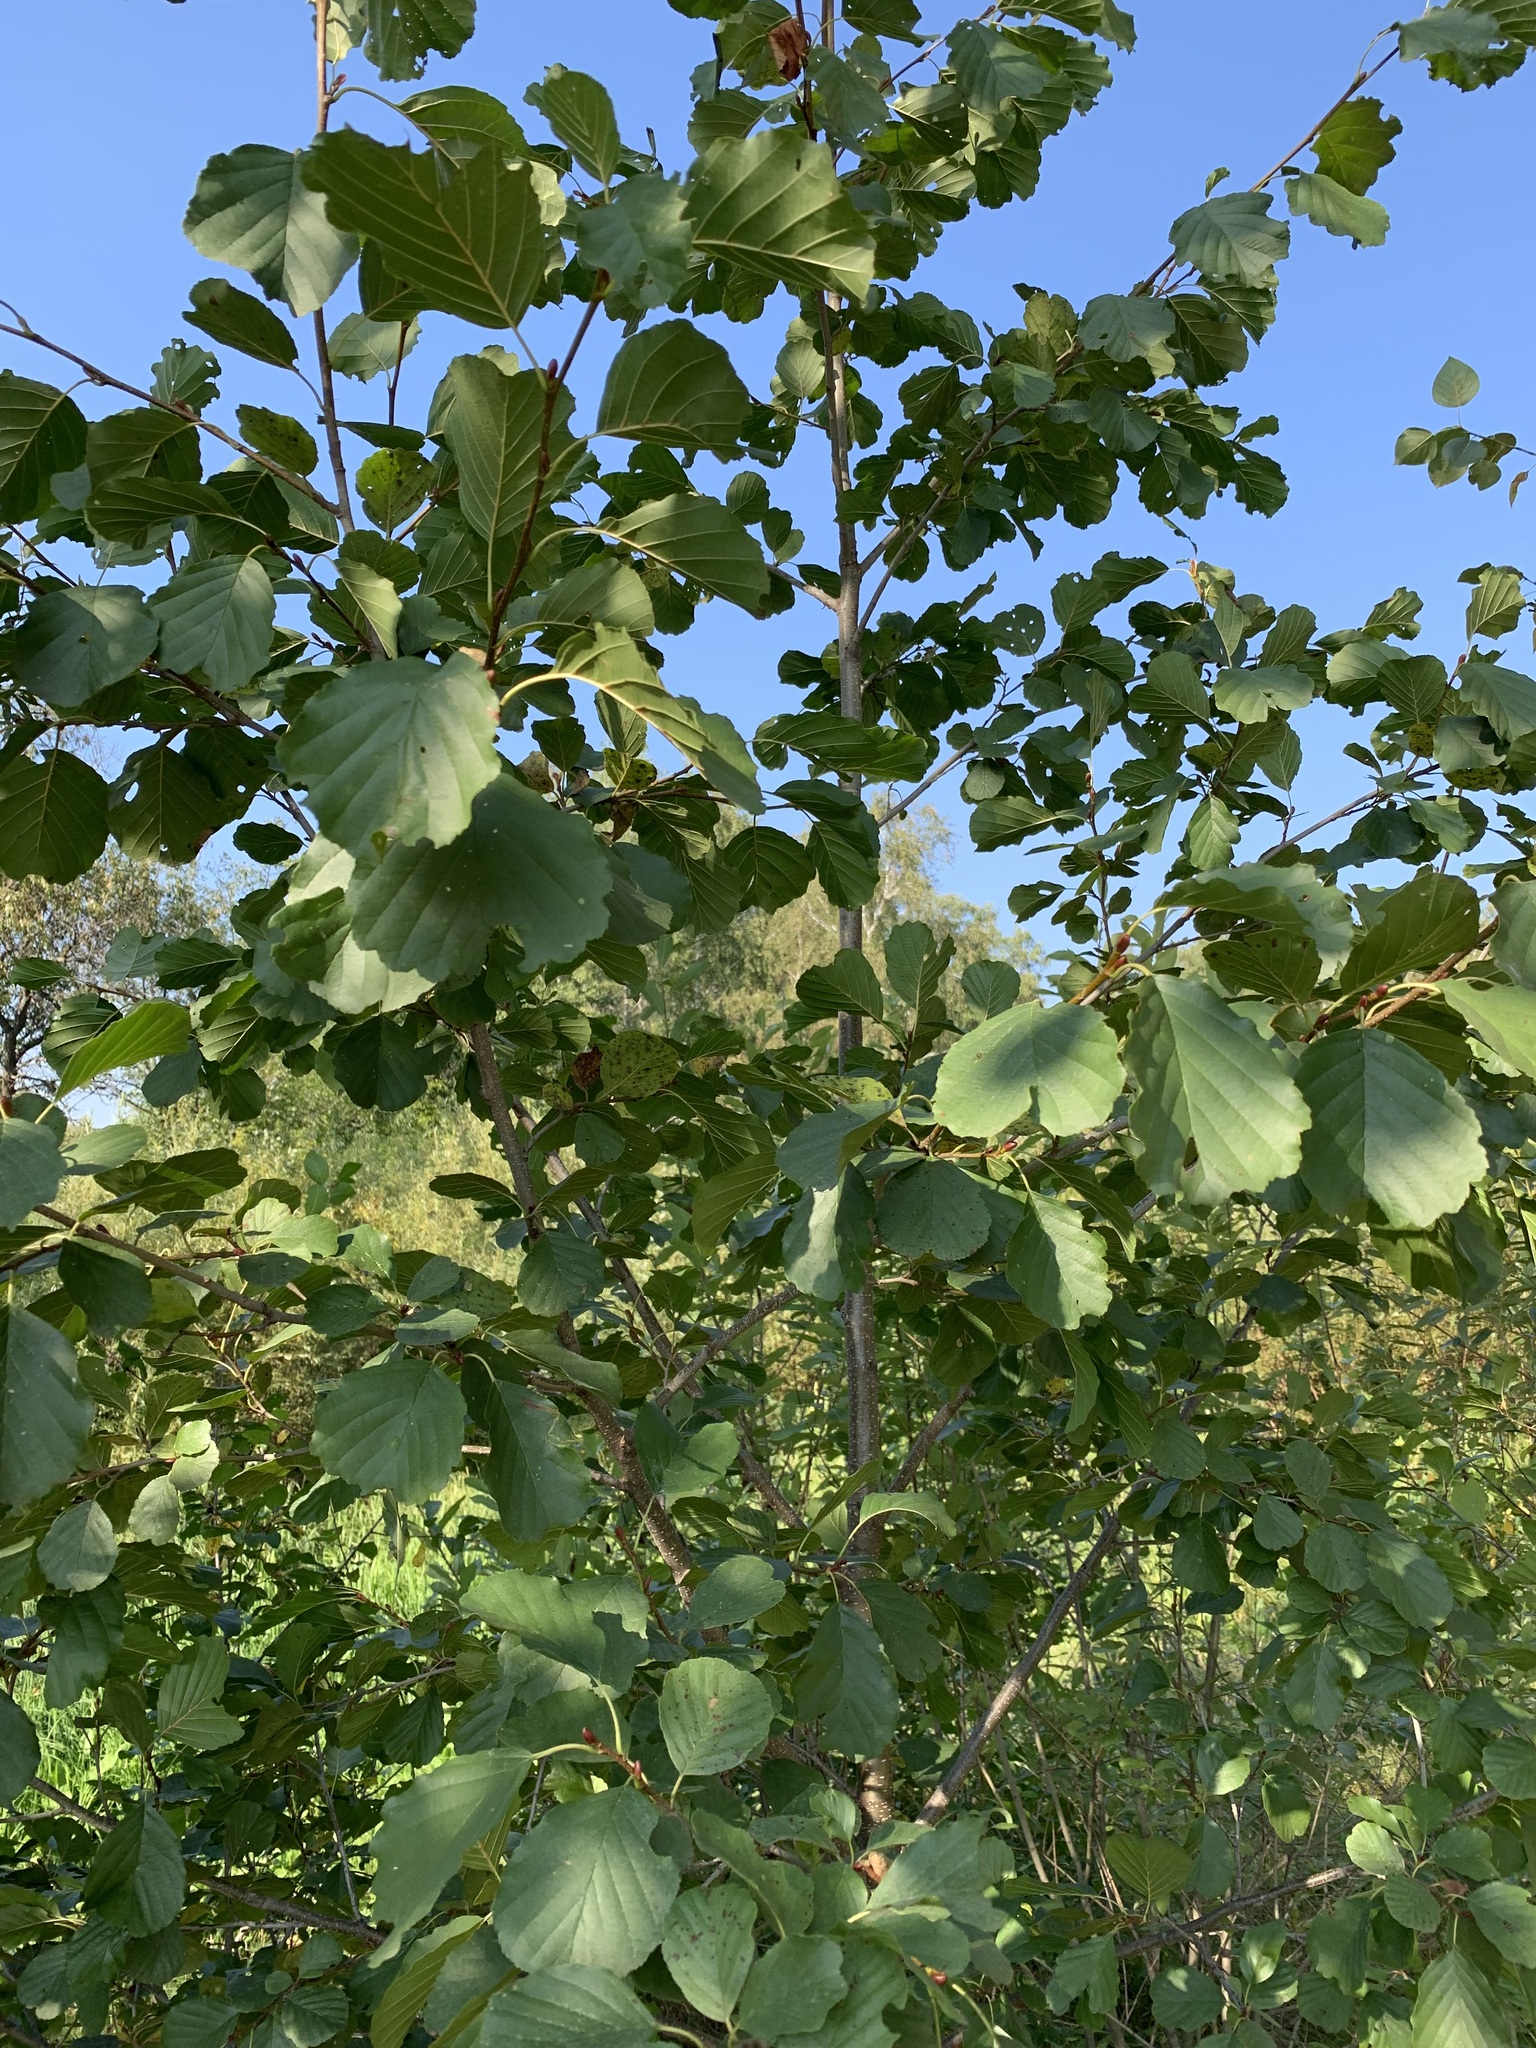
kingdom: Plantae
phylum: Tracheophyta
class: Magnoliopsida
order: Fagales
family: Betulaceae
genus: Alnus
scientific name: Alnus glutinosa
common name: Black alder
